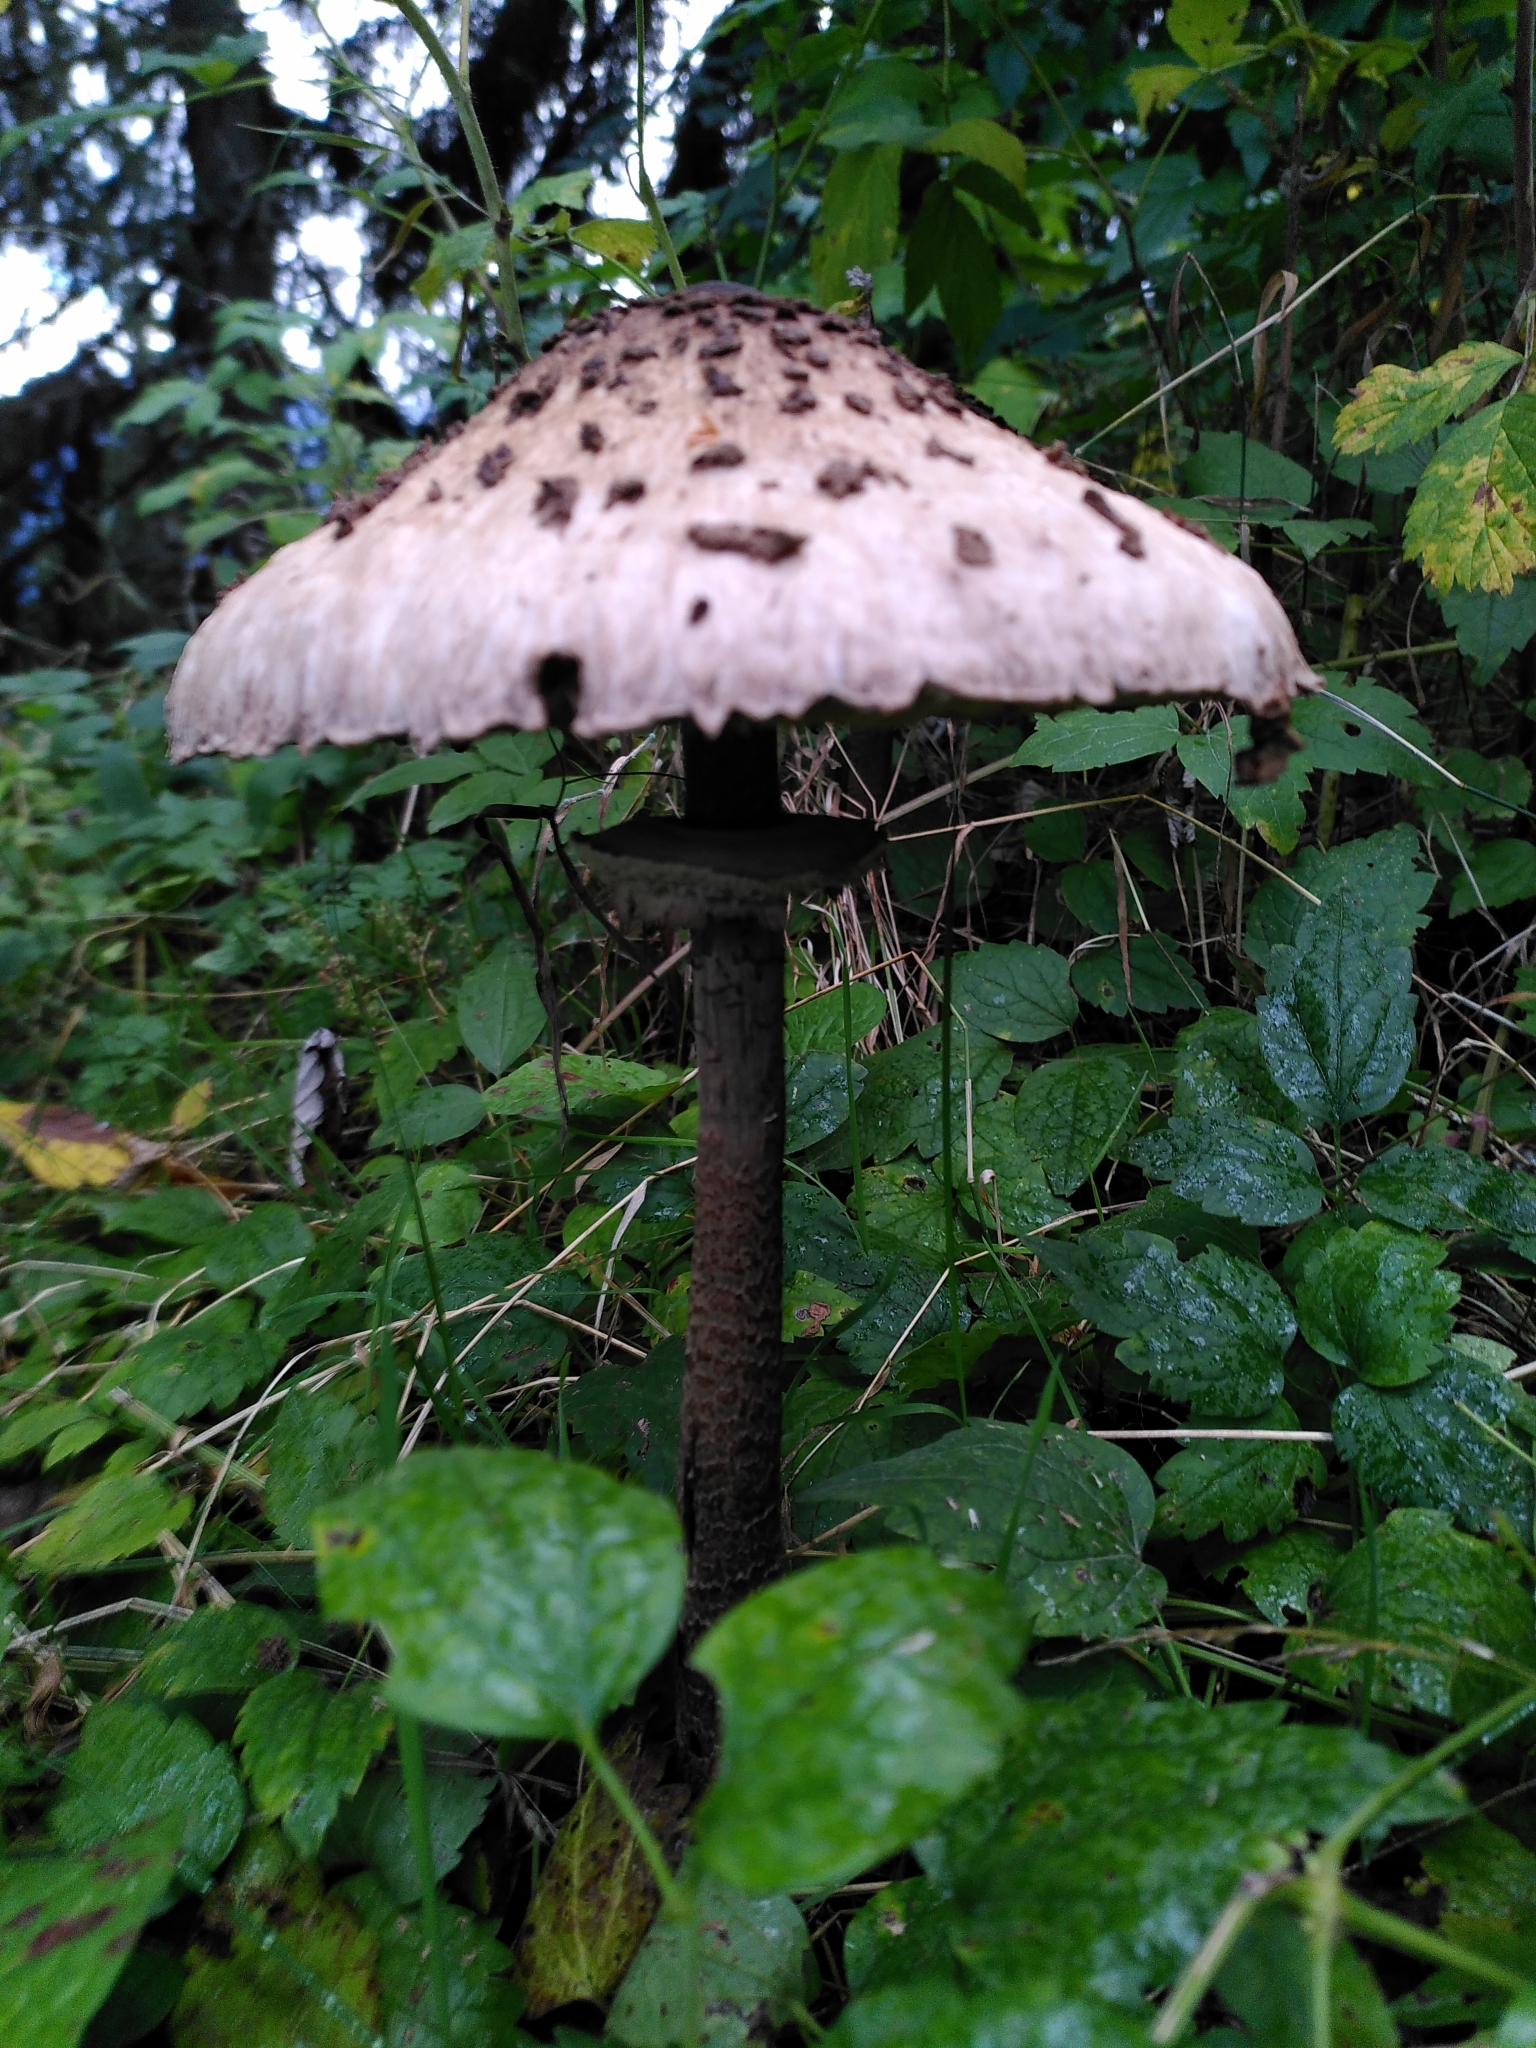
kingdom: Fungi
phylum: Basidiomycota
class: Agaricomycetes
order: Agaricales
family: Agaricaceae
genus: Macrolepiota
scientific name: Macrolepiota procera
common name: Parasol
